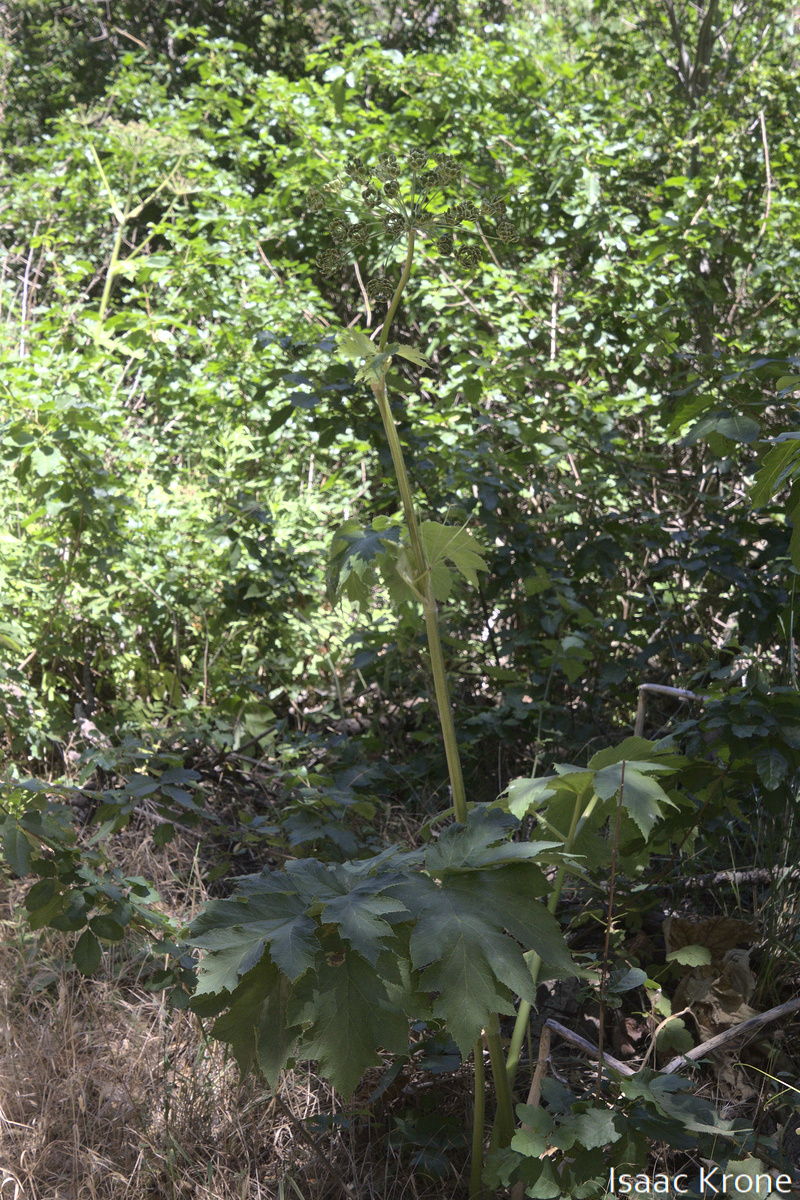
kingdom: Plantae
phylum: Tracheophyta
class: Magnoliopsida
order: Apiales
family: Apiaceae
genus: Heracleum
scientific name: Heracleum maximum
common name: American cow parsnip
